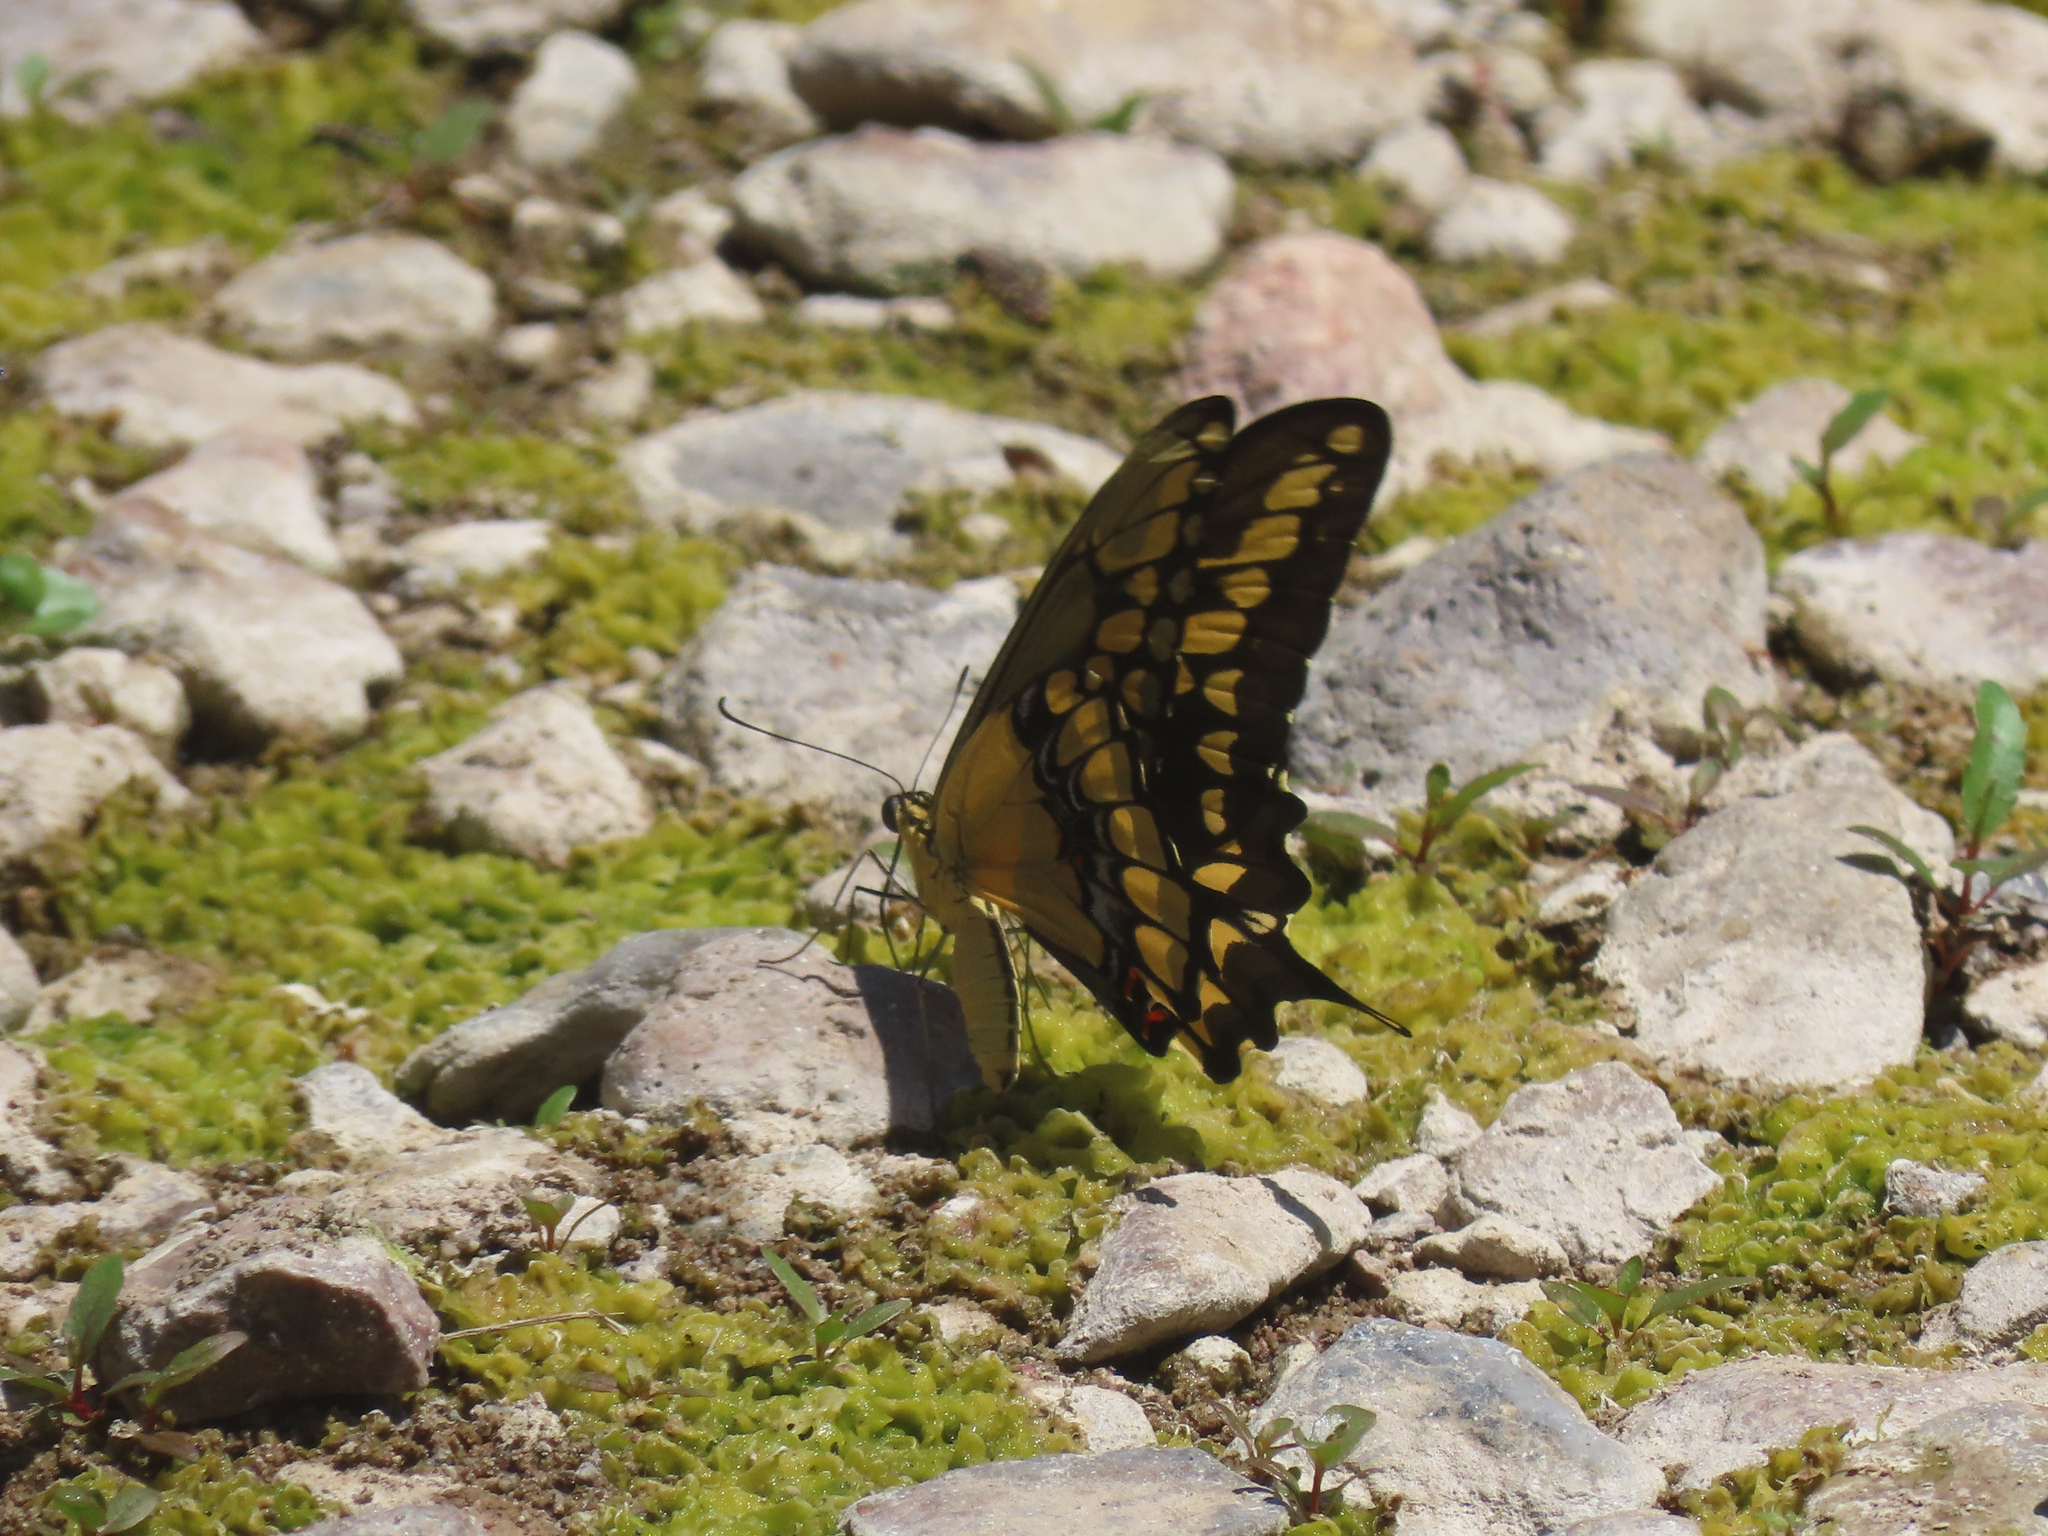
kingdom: Animalia
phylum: Arthropoda
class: Insecta
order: Lepidoptera
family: Papilionidae
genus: Papilio
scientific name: Papilio rumiko
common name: Western giant swallowtail
